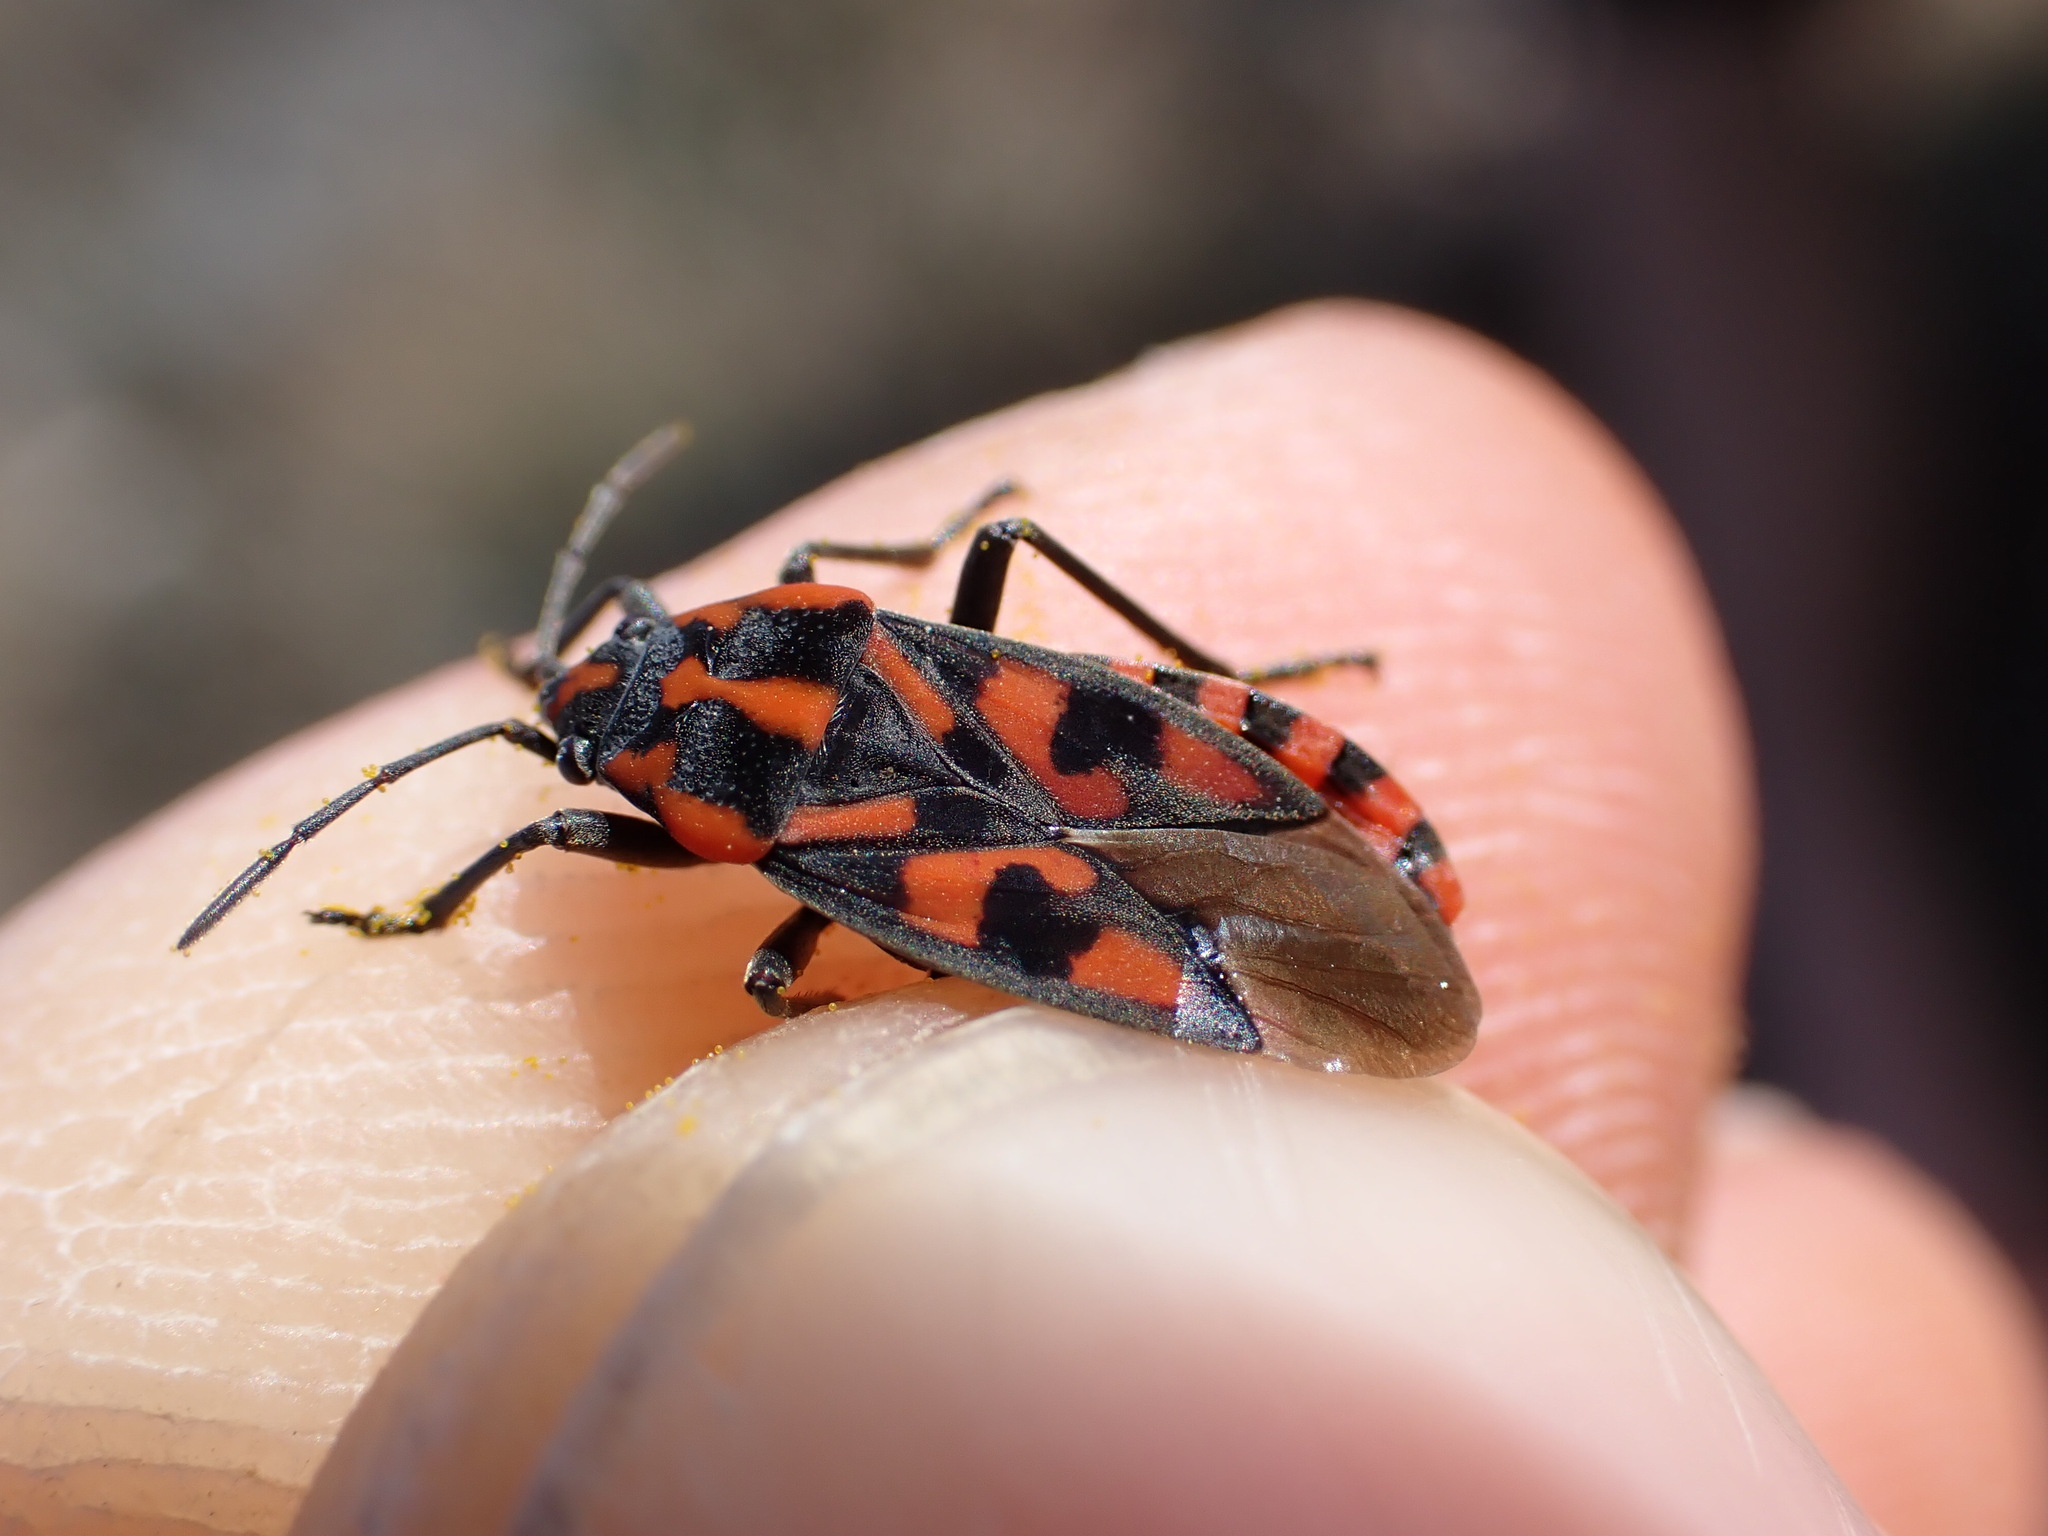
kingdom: Animalia
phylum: Arthropoda
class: Insecta
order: Hemiptera
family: Lygaeidae
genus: Spilostethus
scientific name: Spilostethus saxatilis
